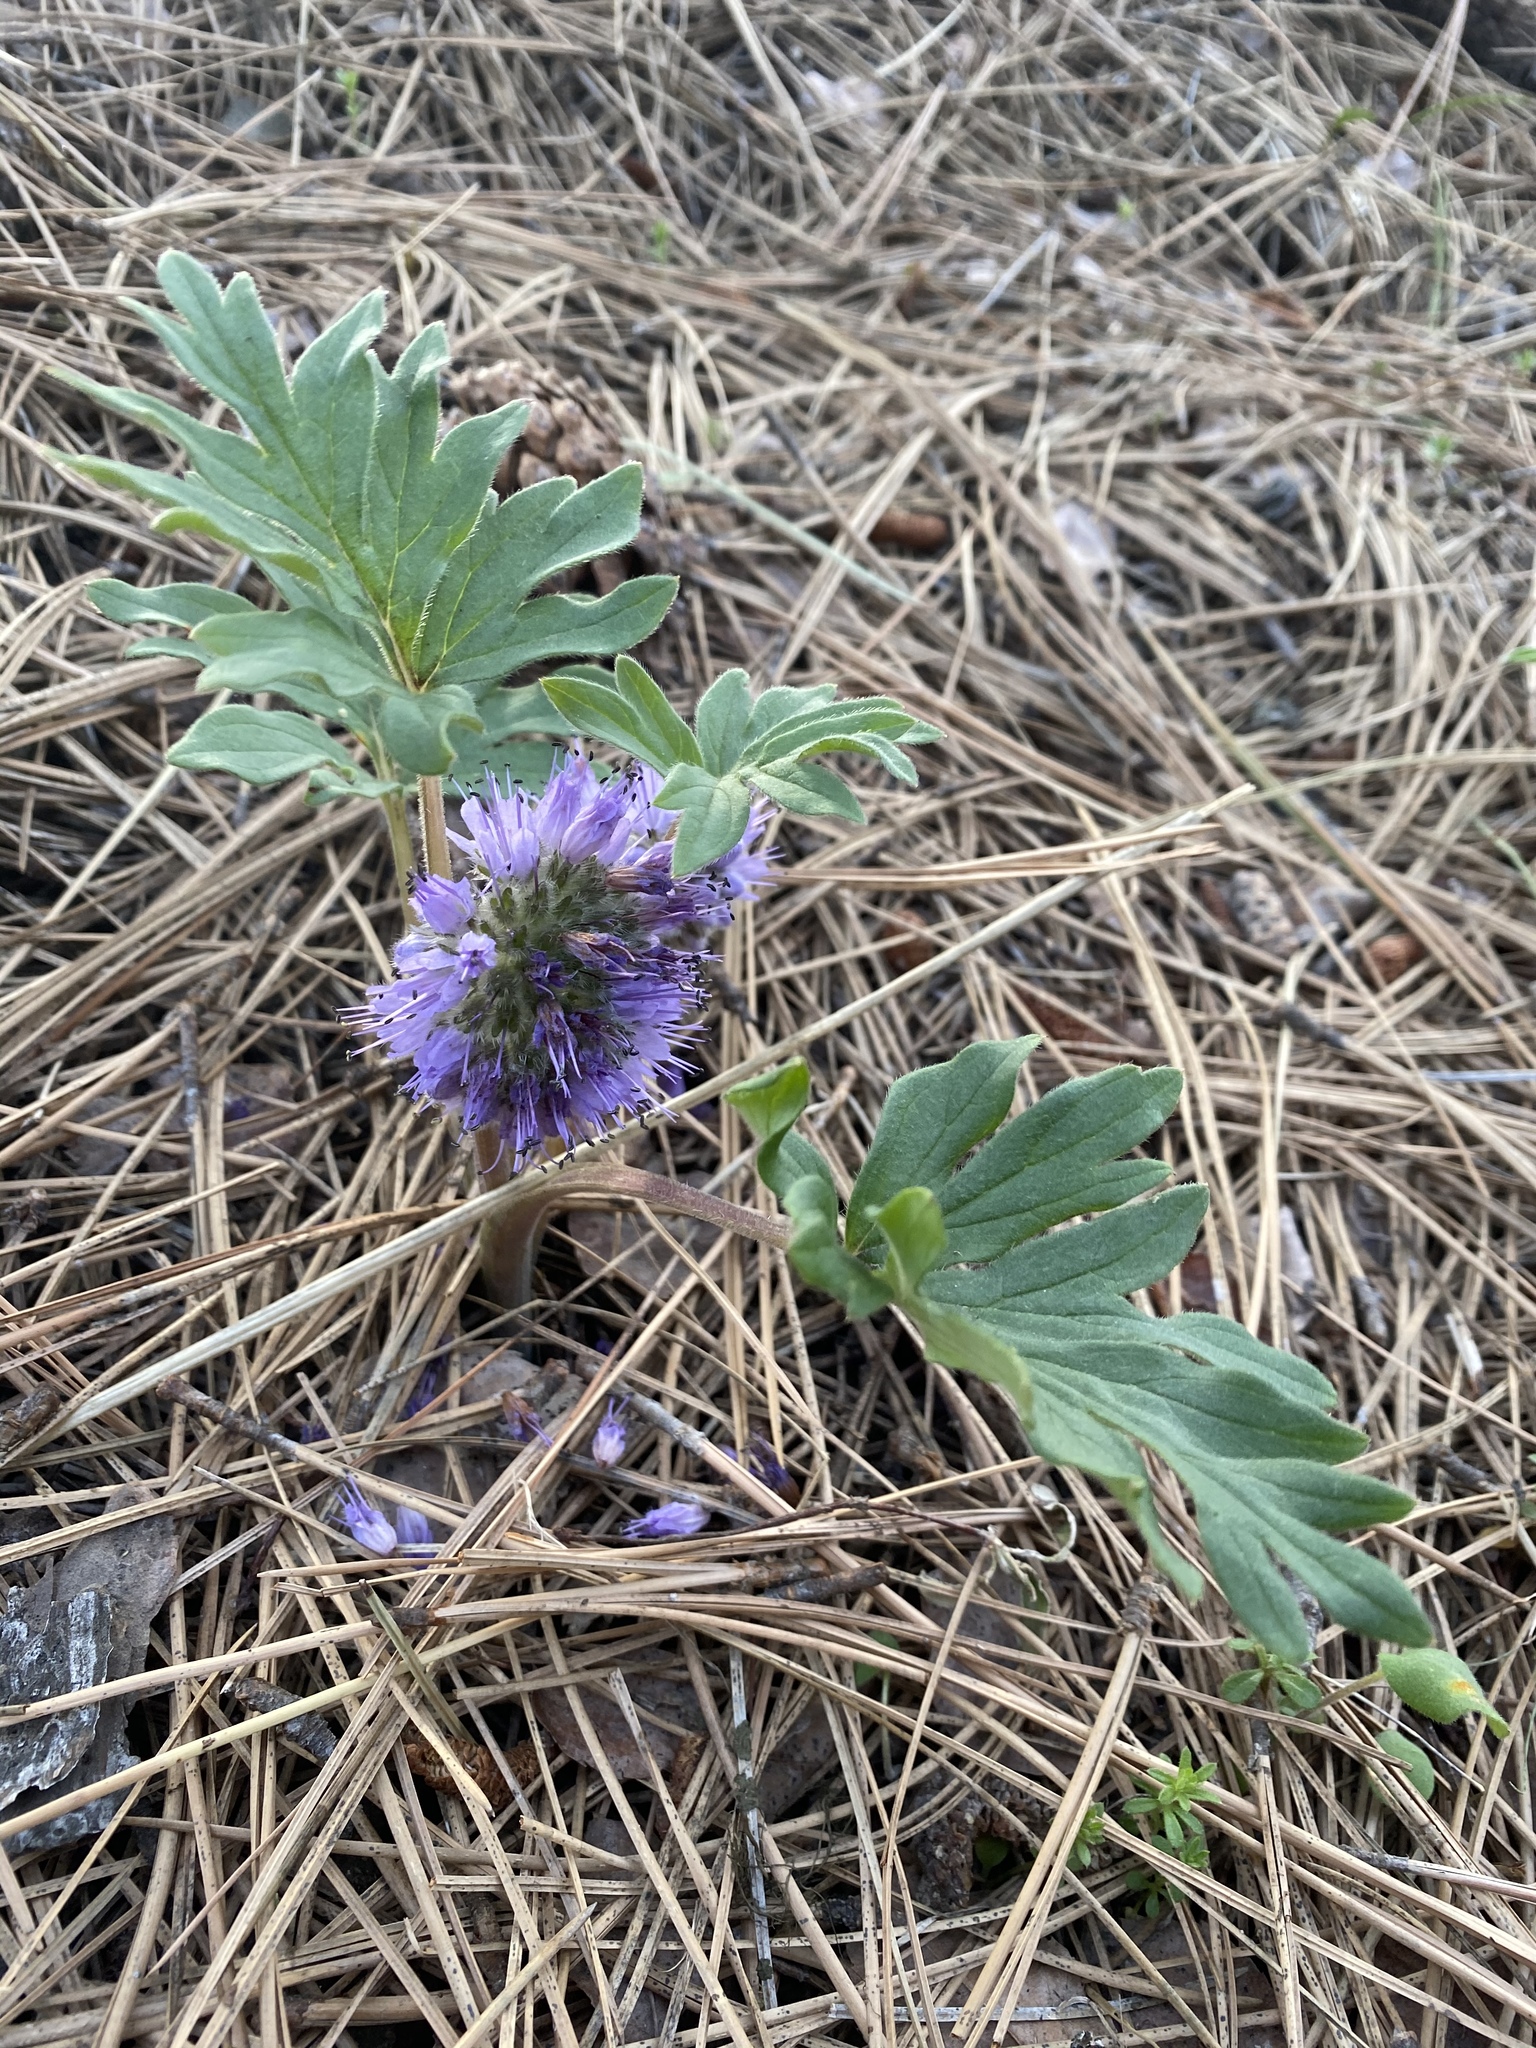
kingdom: Plantae
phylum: Tracheophyta
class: Magnoliopsida
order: Boraginales
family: Hydrophyllaceae
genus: Hydrophyllum
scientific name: Hydrophyllum capitatum
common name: Woollen-breeches
